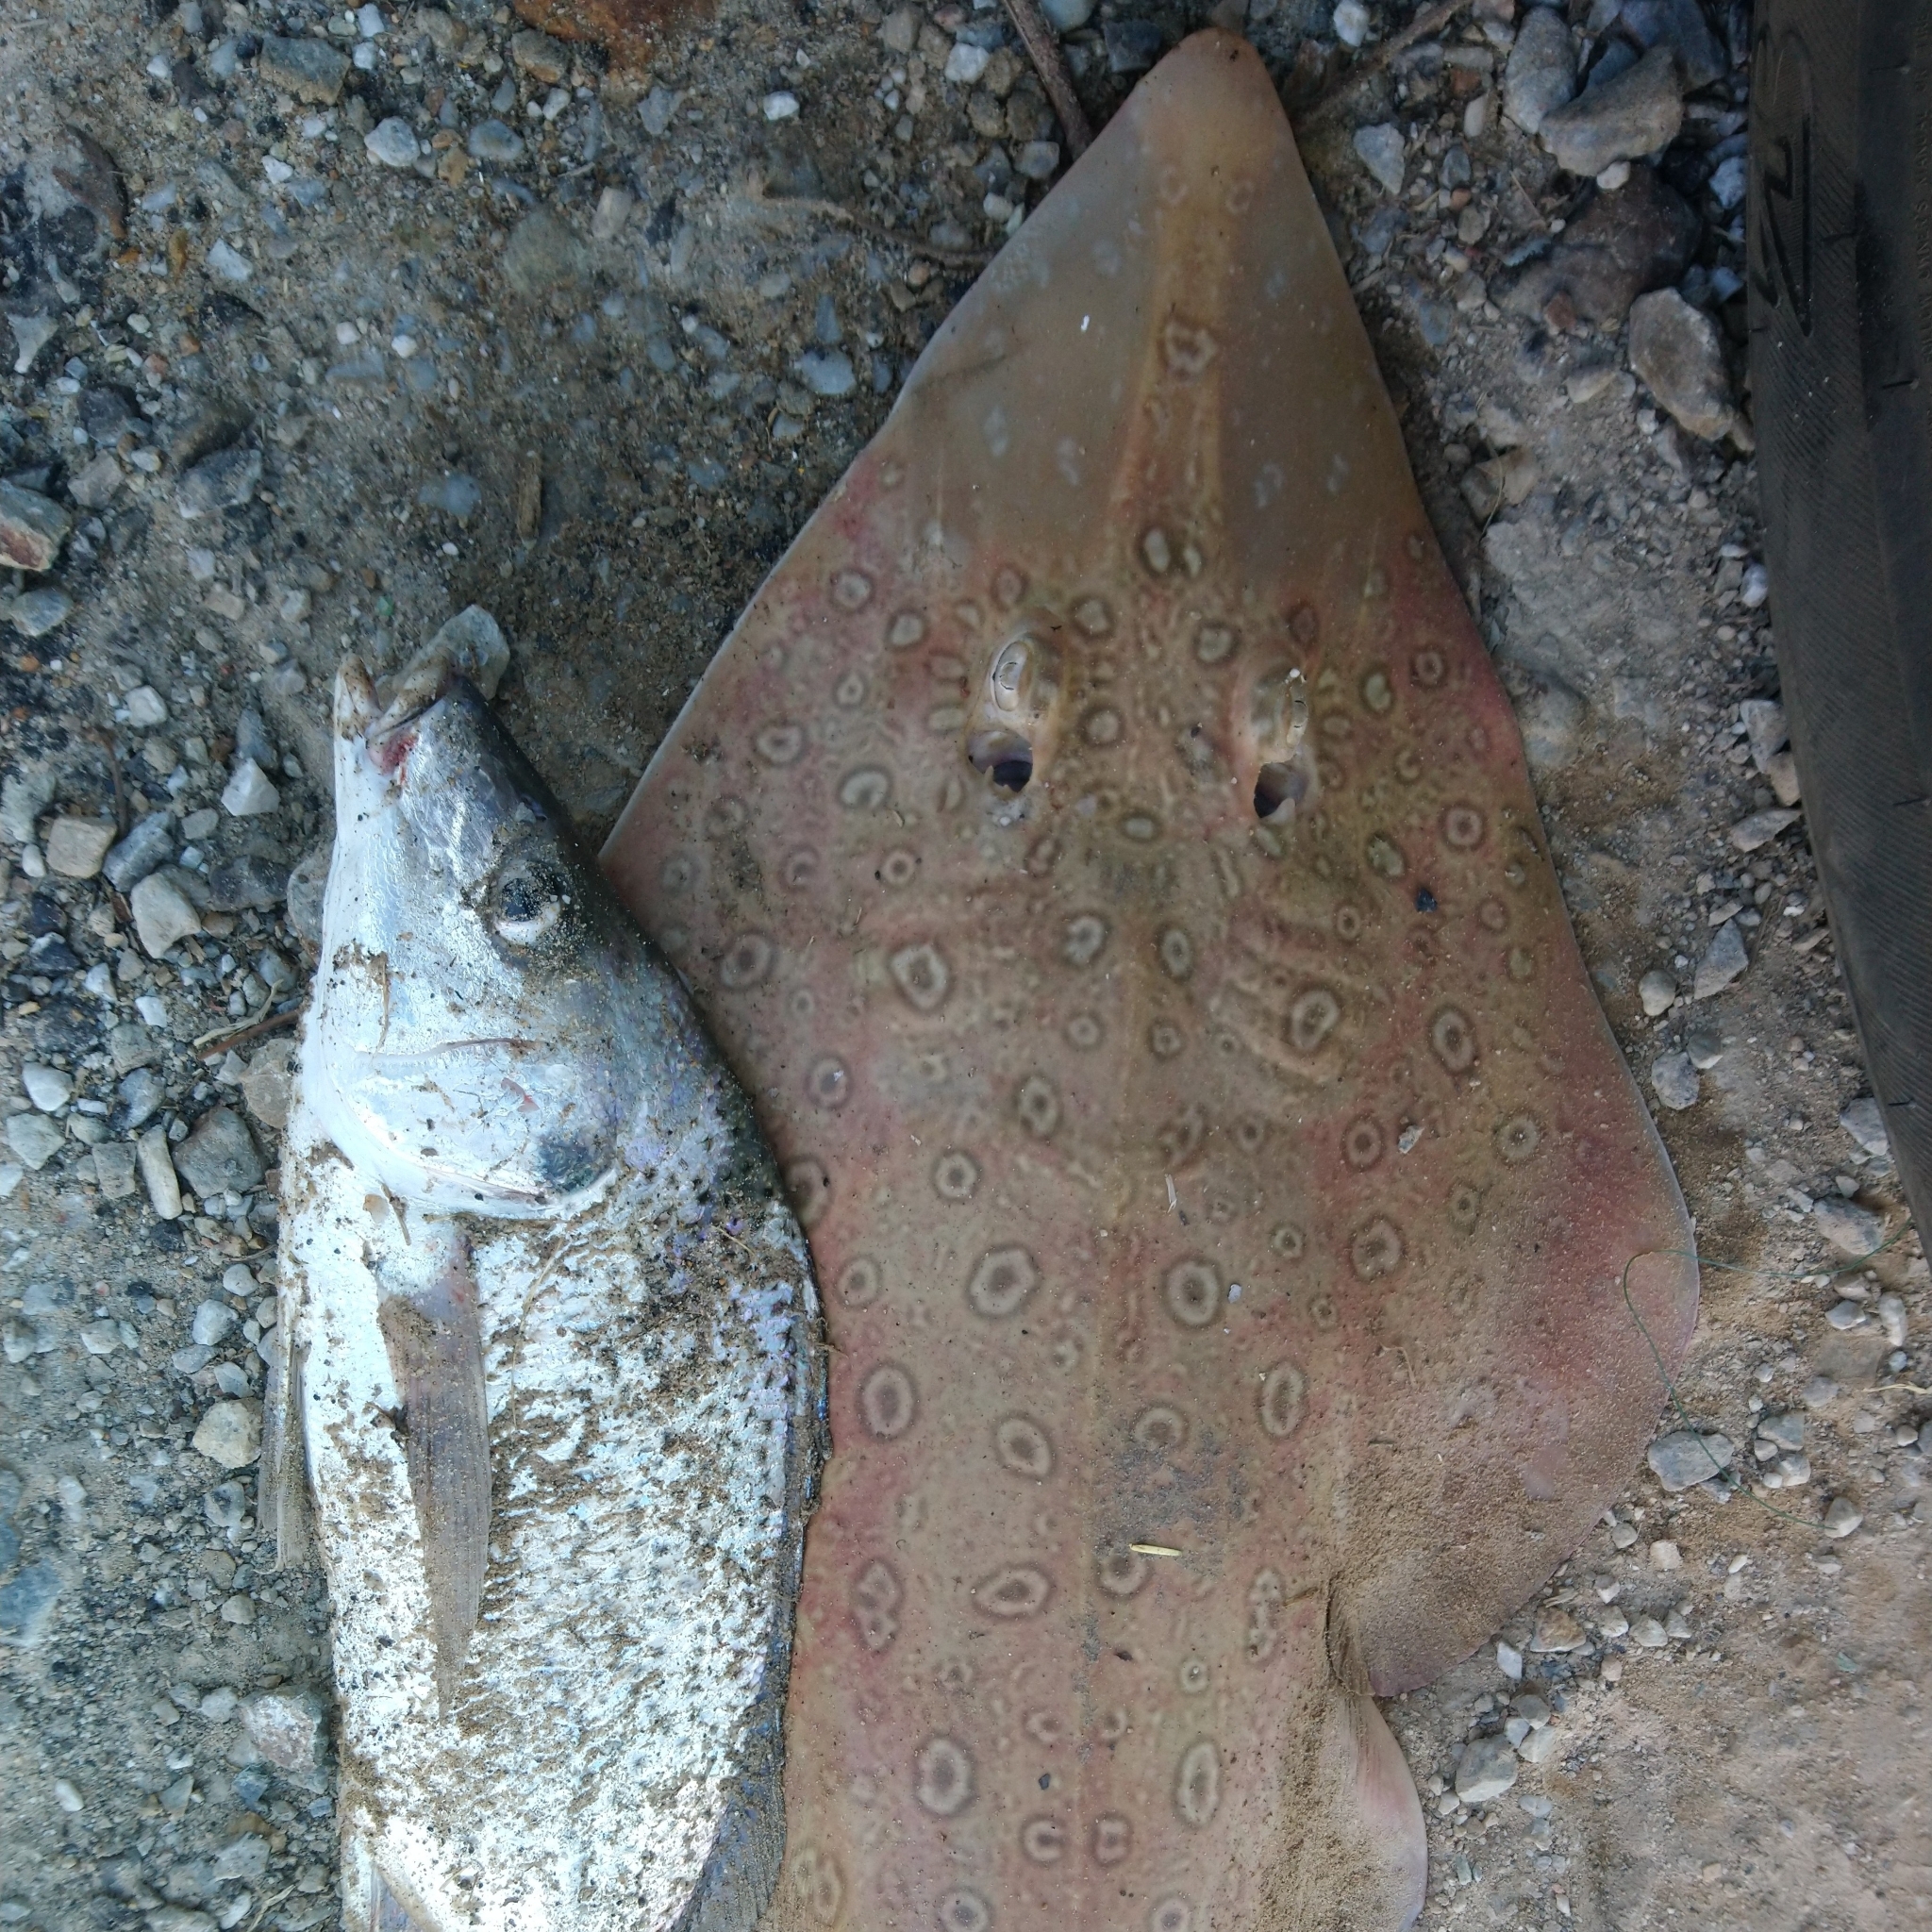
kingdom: Animalia
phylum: Chordata
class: Elasmobranchii
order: Rhinopristiformes
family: Rhinobatidae
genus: Acroteriobatus
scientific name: Acroteriobatus annulatus
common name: Lesser guitarfish
